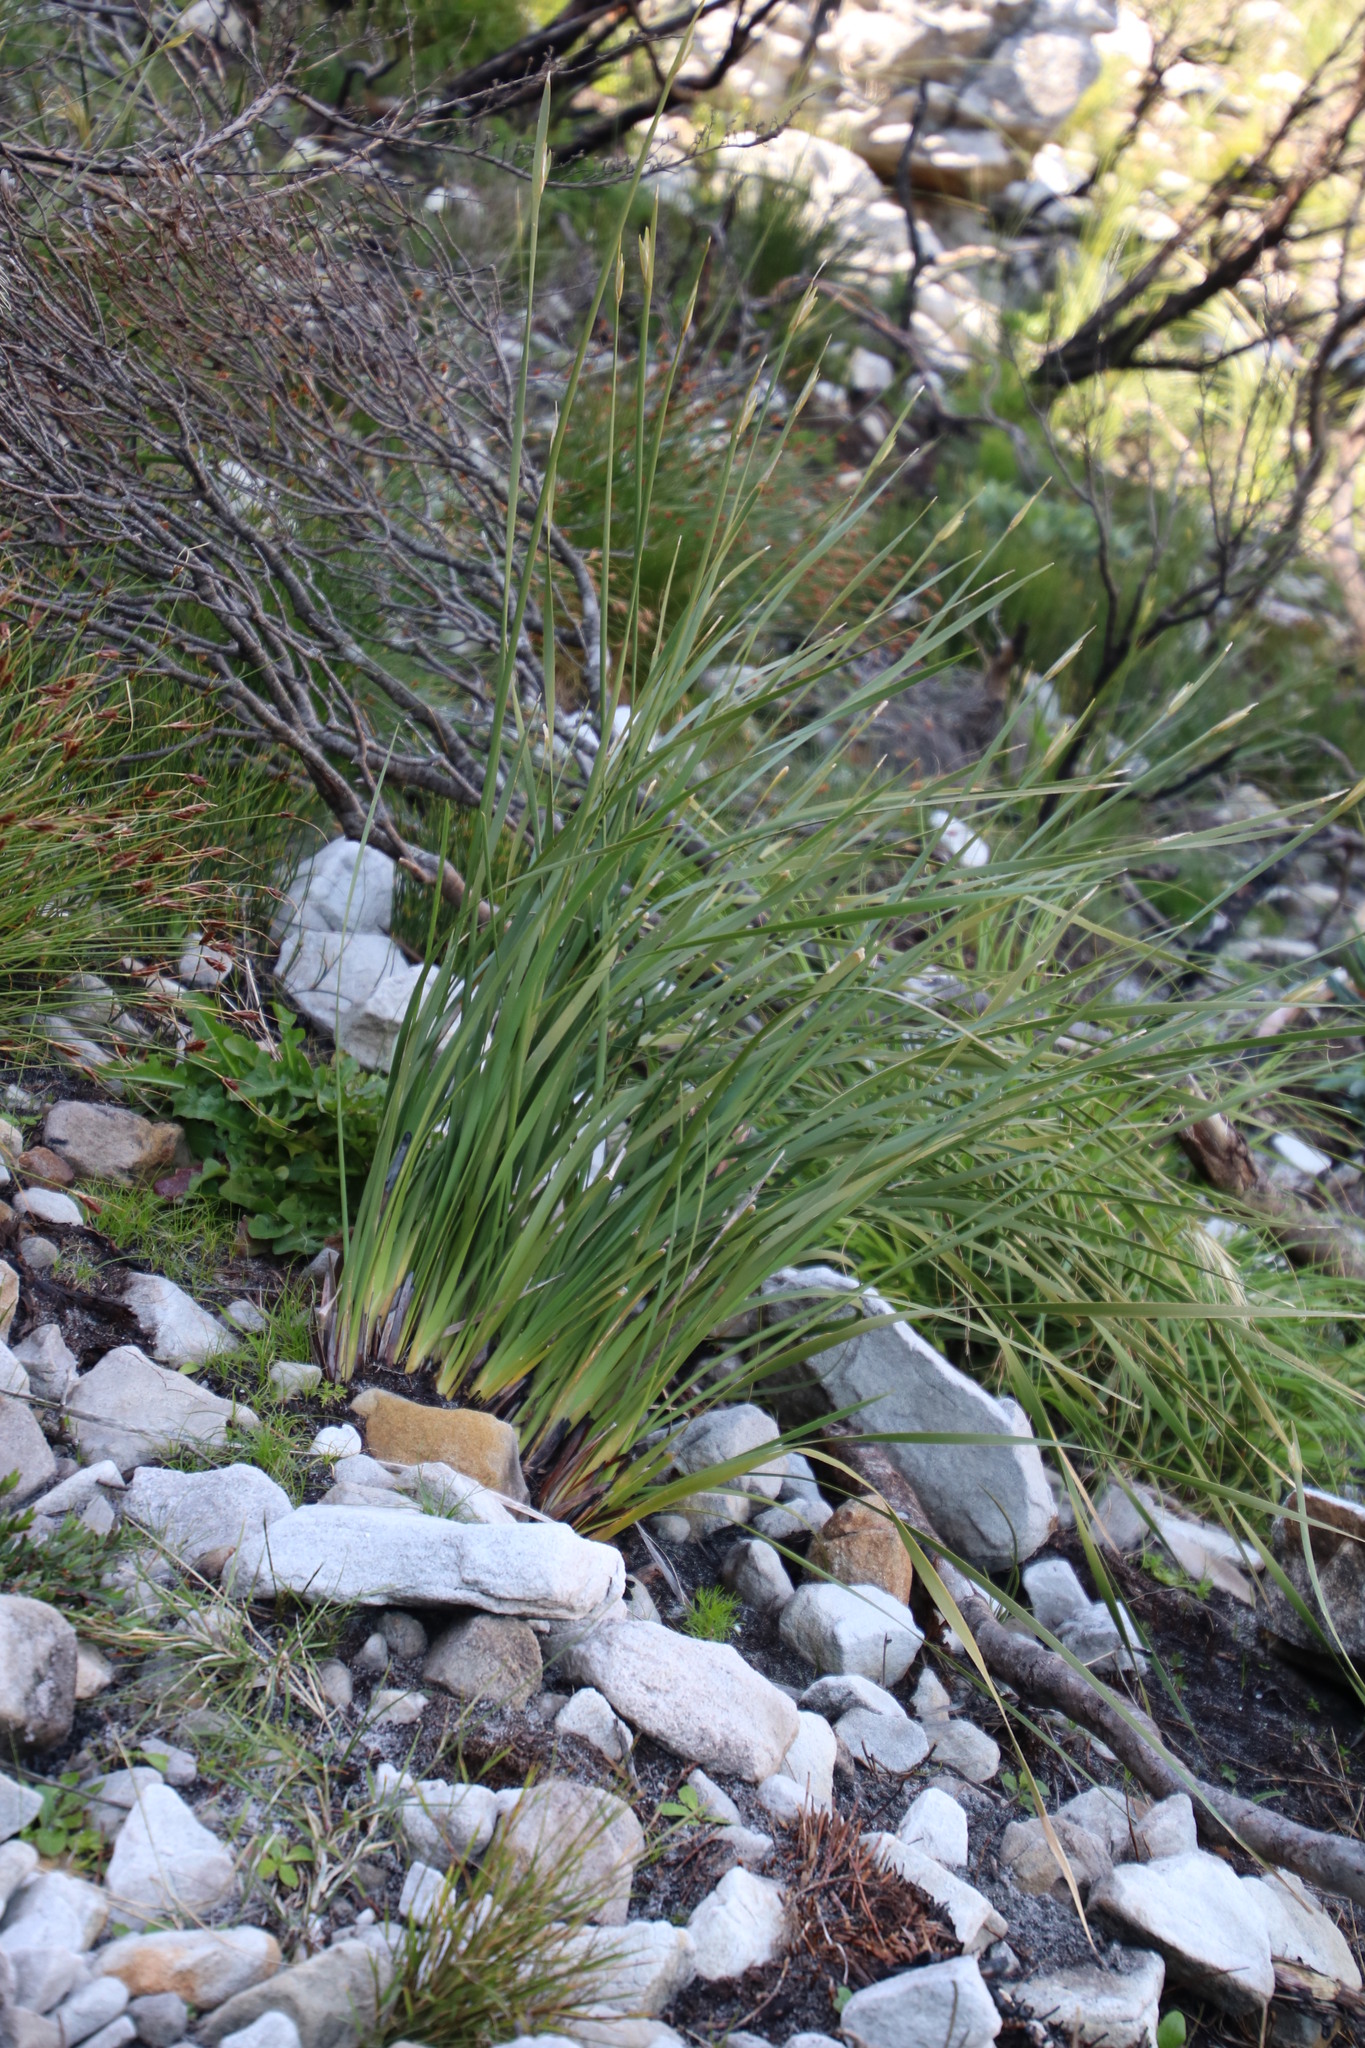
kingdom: Plantae
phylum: Tracheophyta
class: Liliopsida
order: Asparagales
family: Iridaceae
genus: Bobartia
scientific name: Bobartia gladiata
